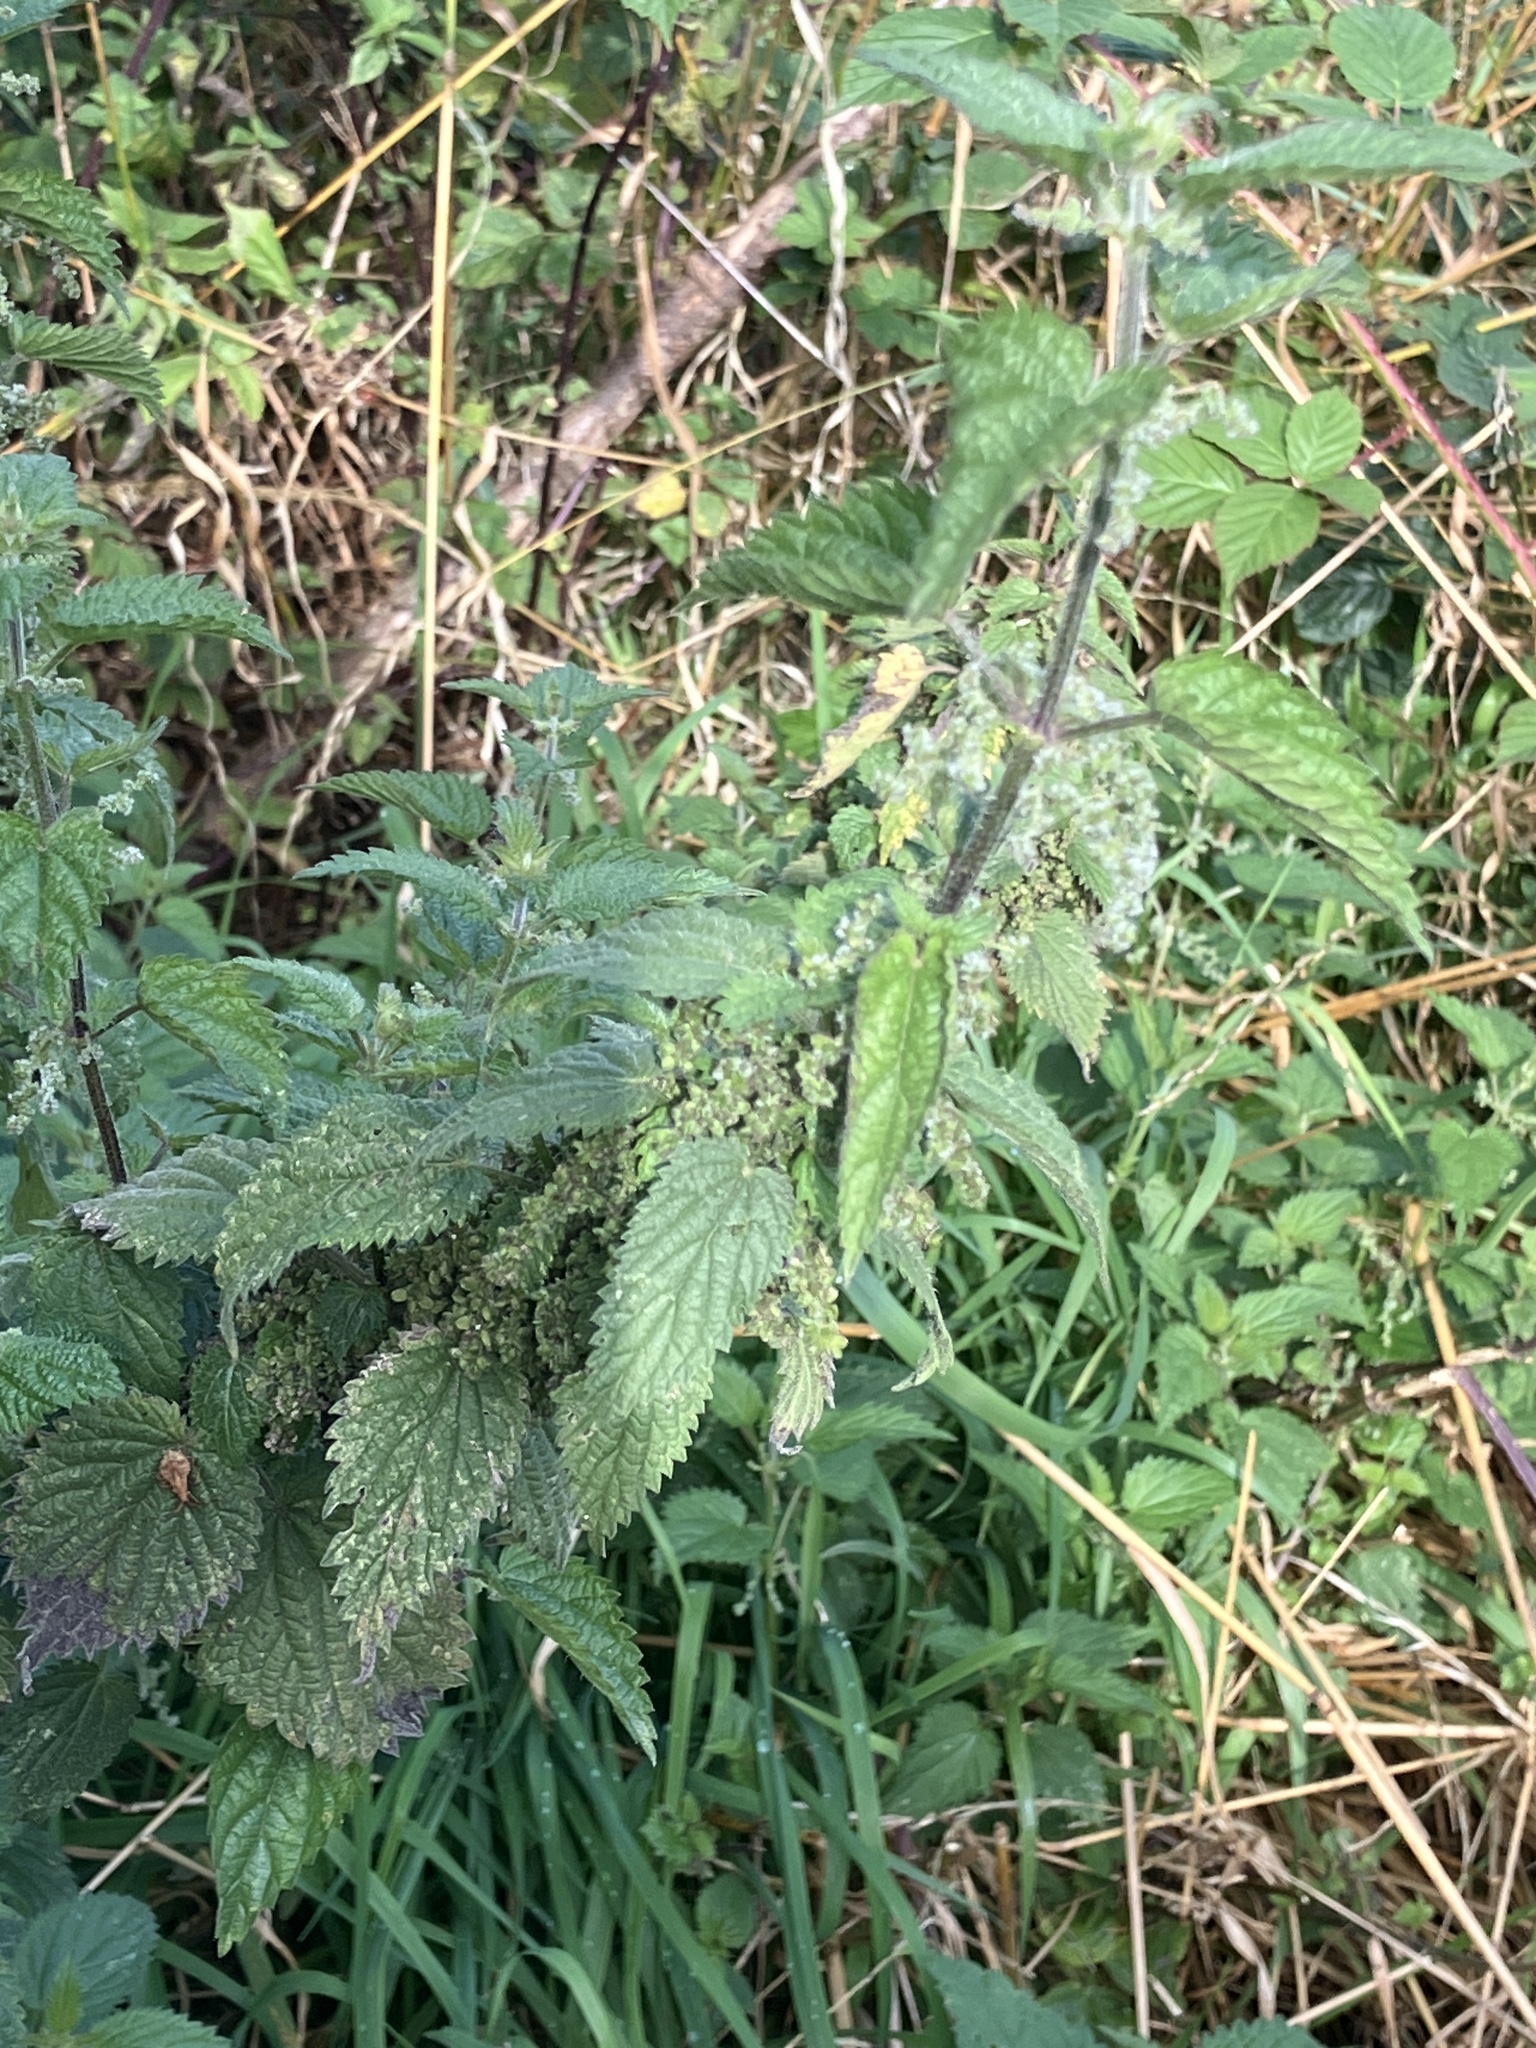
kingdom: Plantae
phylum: Tracheophyta
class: Magnoliopsida
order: Rosales
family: Urticaceae
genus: Urtica
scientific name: Urtica dioica
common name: Common nettle
